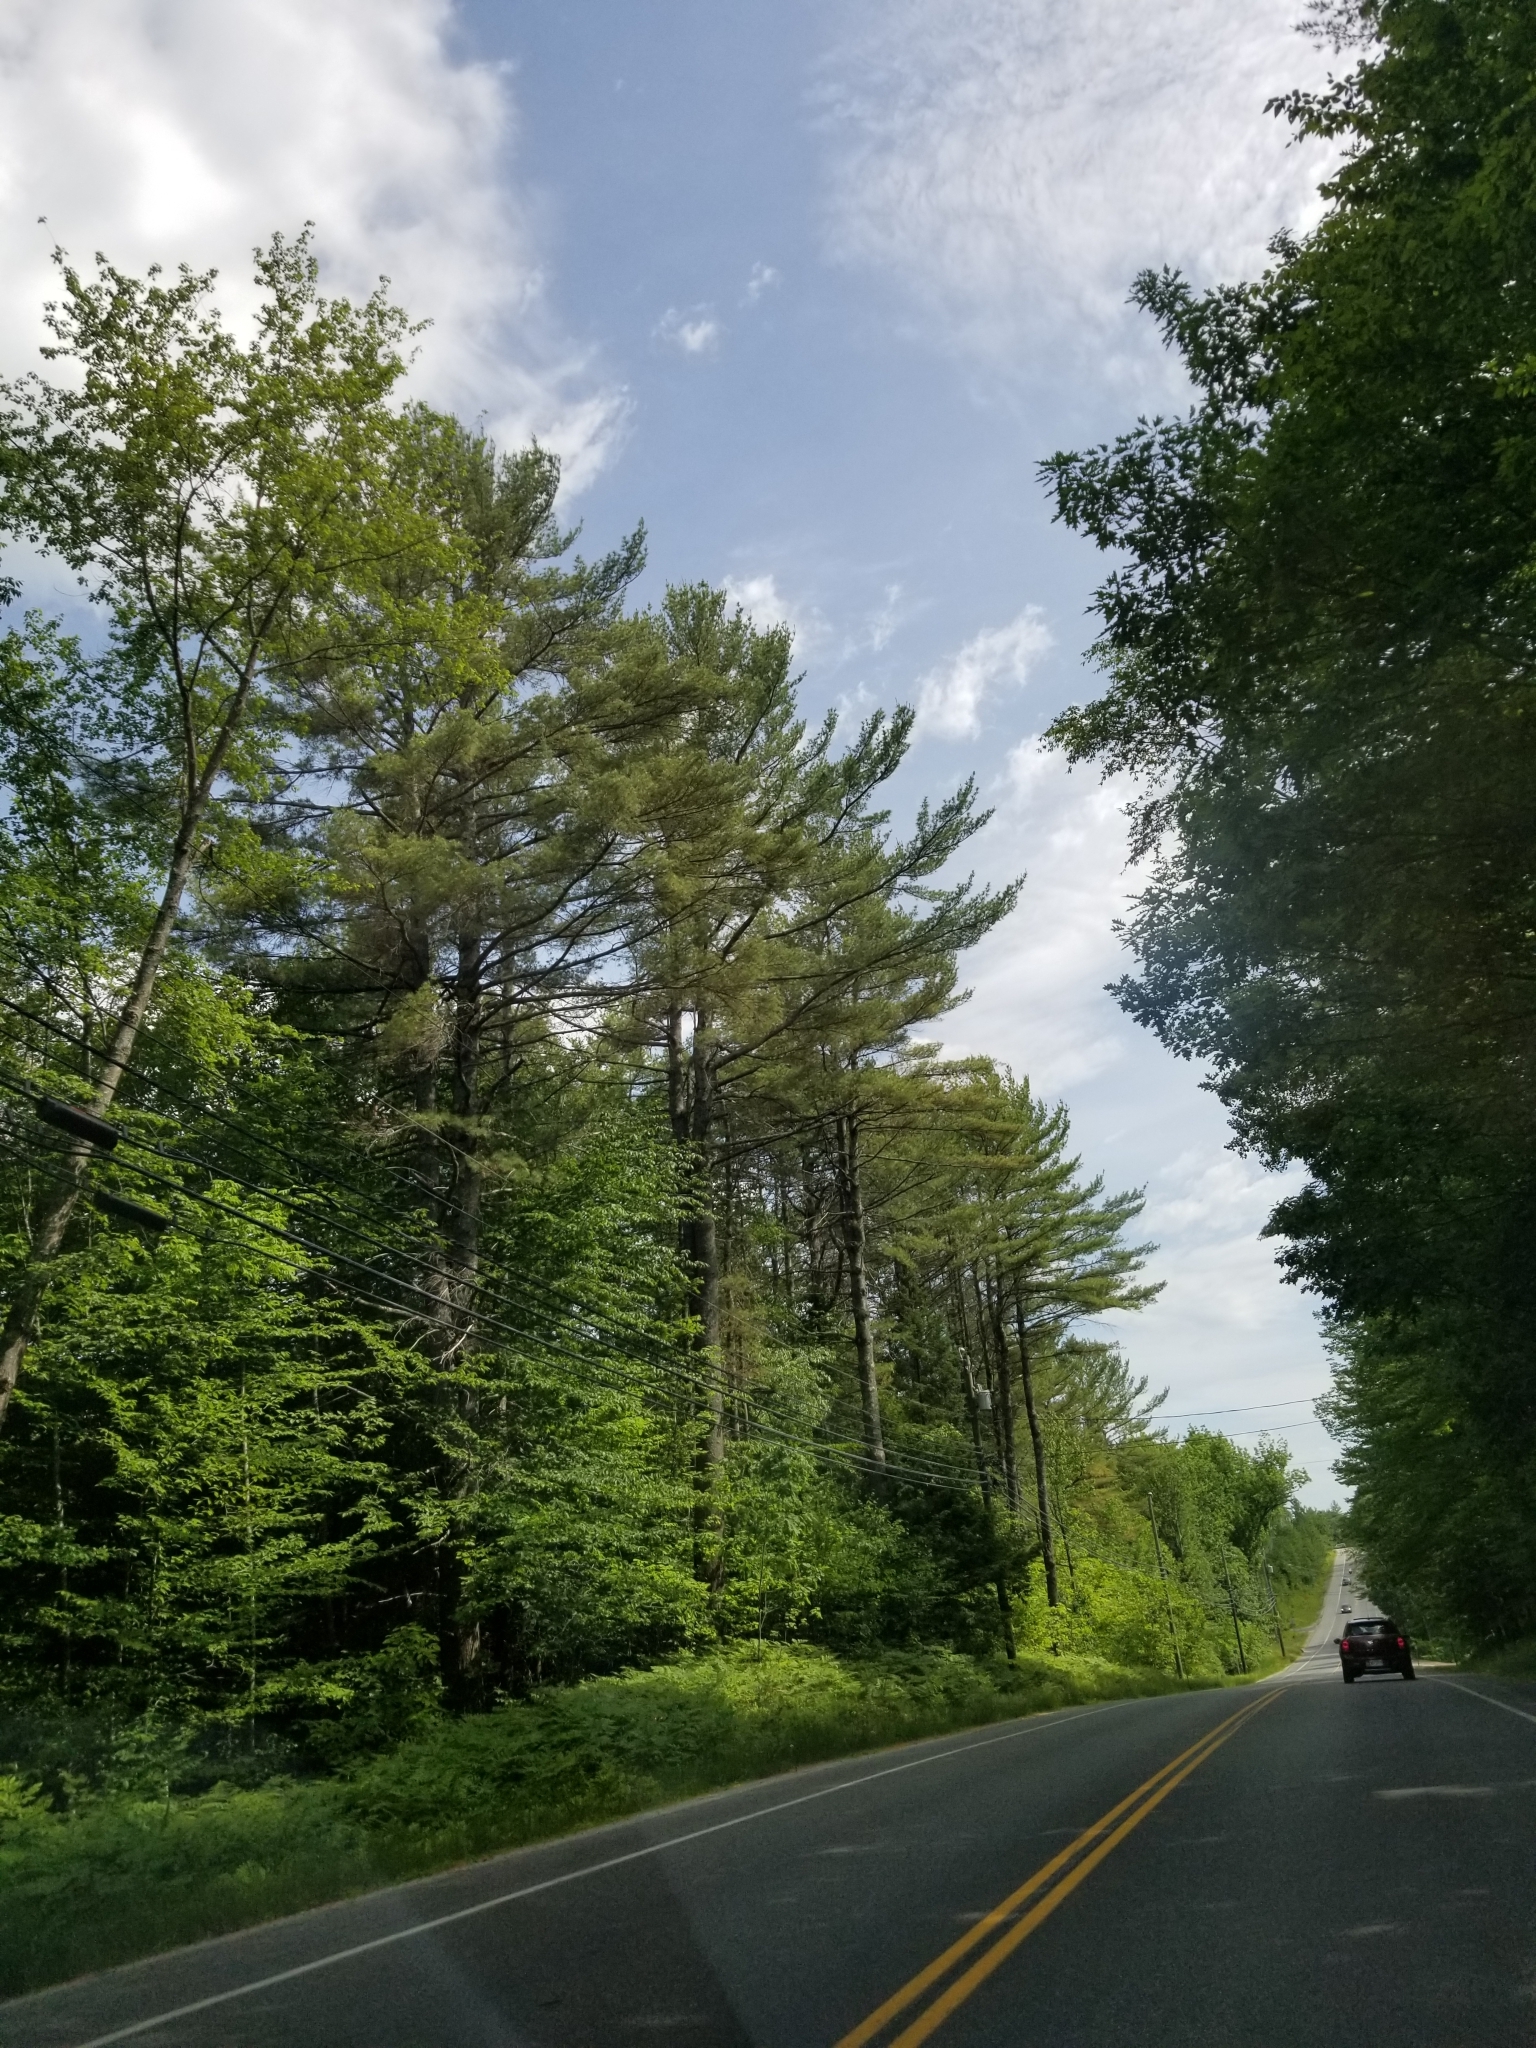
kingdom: Plantae
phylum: Tracheophyta
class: Pinopsida
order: Pinales
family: Pinaceae
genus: Pinus
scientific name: Pinus strobus
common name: Weymouth pine
